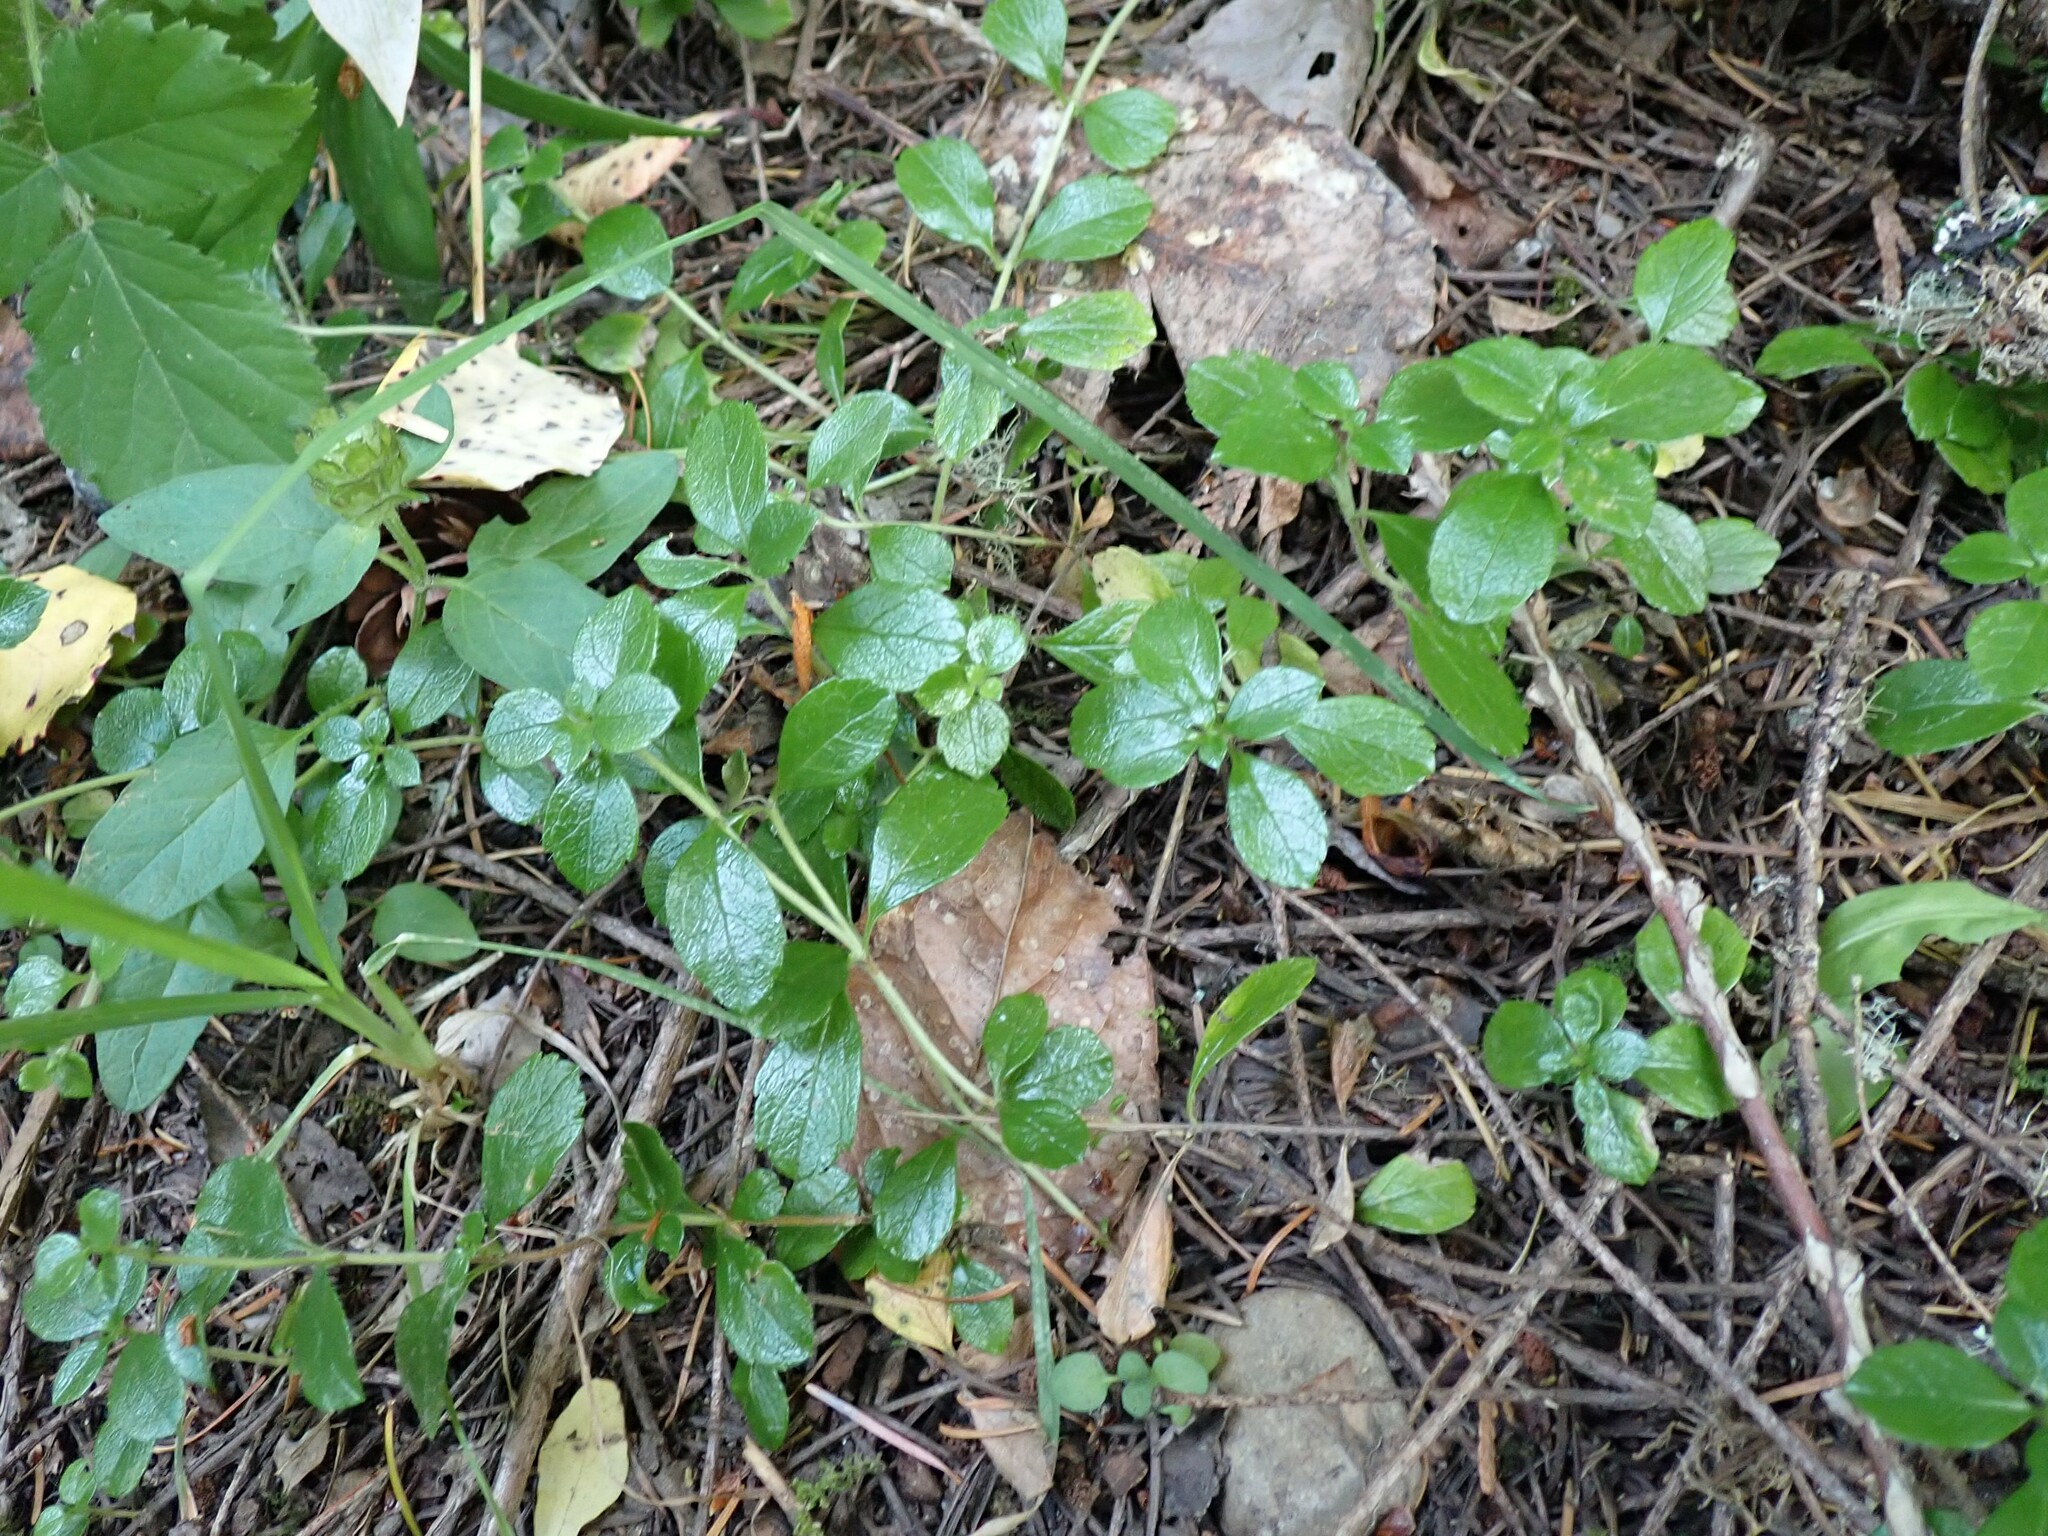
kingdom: Plantae
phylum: Tracheophyta
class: Magnoliopsida
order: Dipsacales
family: Caprifoliaceae
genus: Linnaea
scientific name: Linnaea borealis
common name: Twinflower
